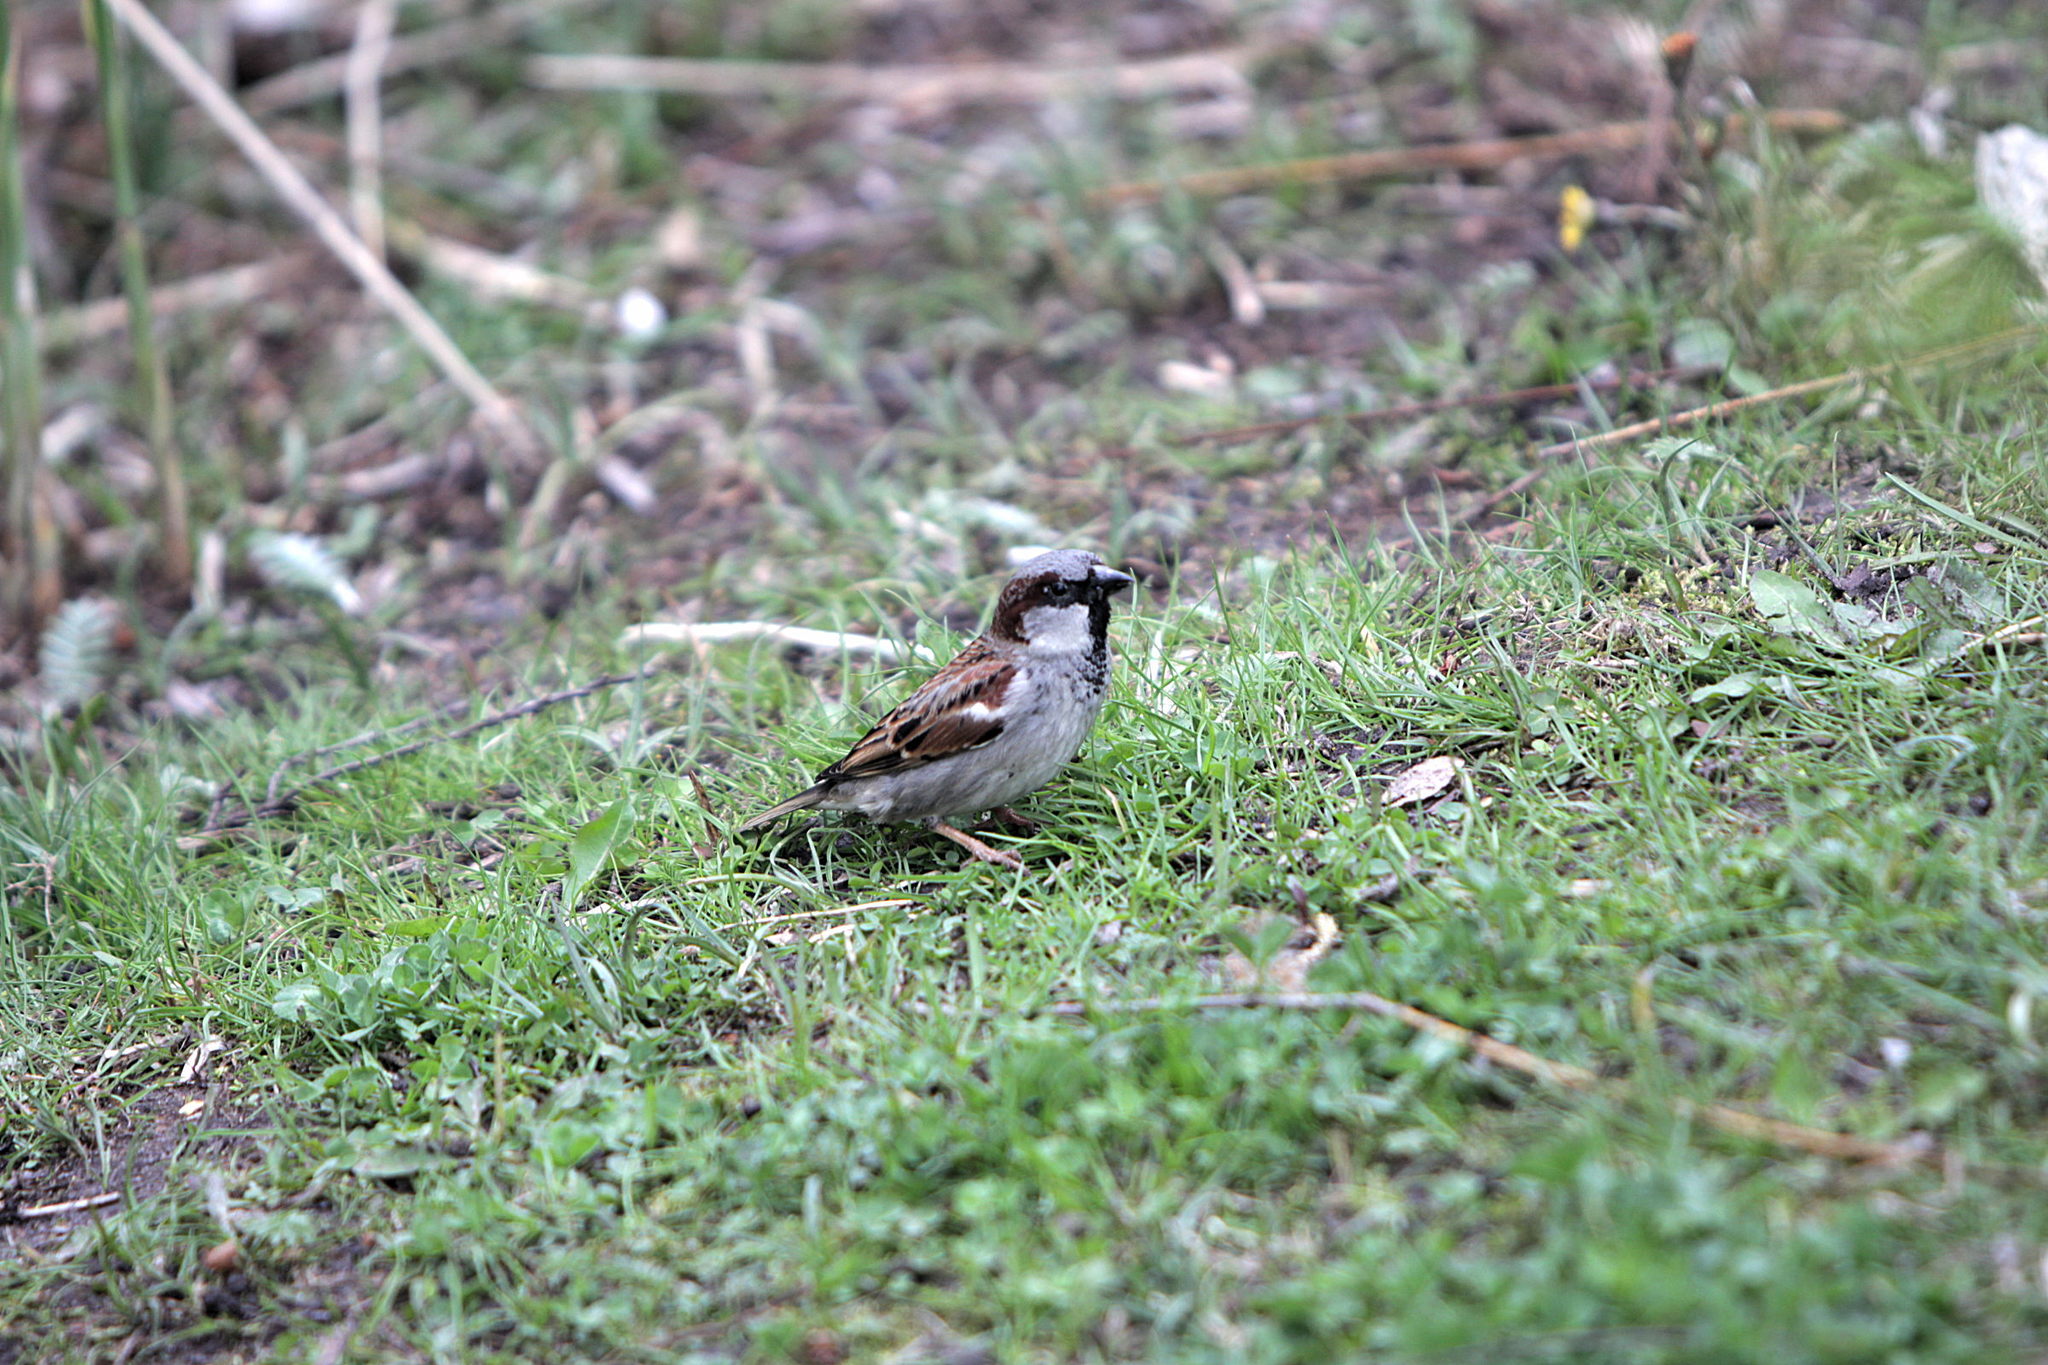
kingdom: Animalia
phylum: Chordata
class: Aves
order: Passeriformes
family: Passeridae
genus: Passer
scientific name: Passer domesticus
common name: House sparrow
